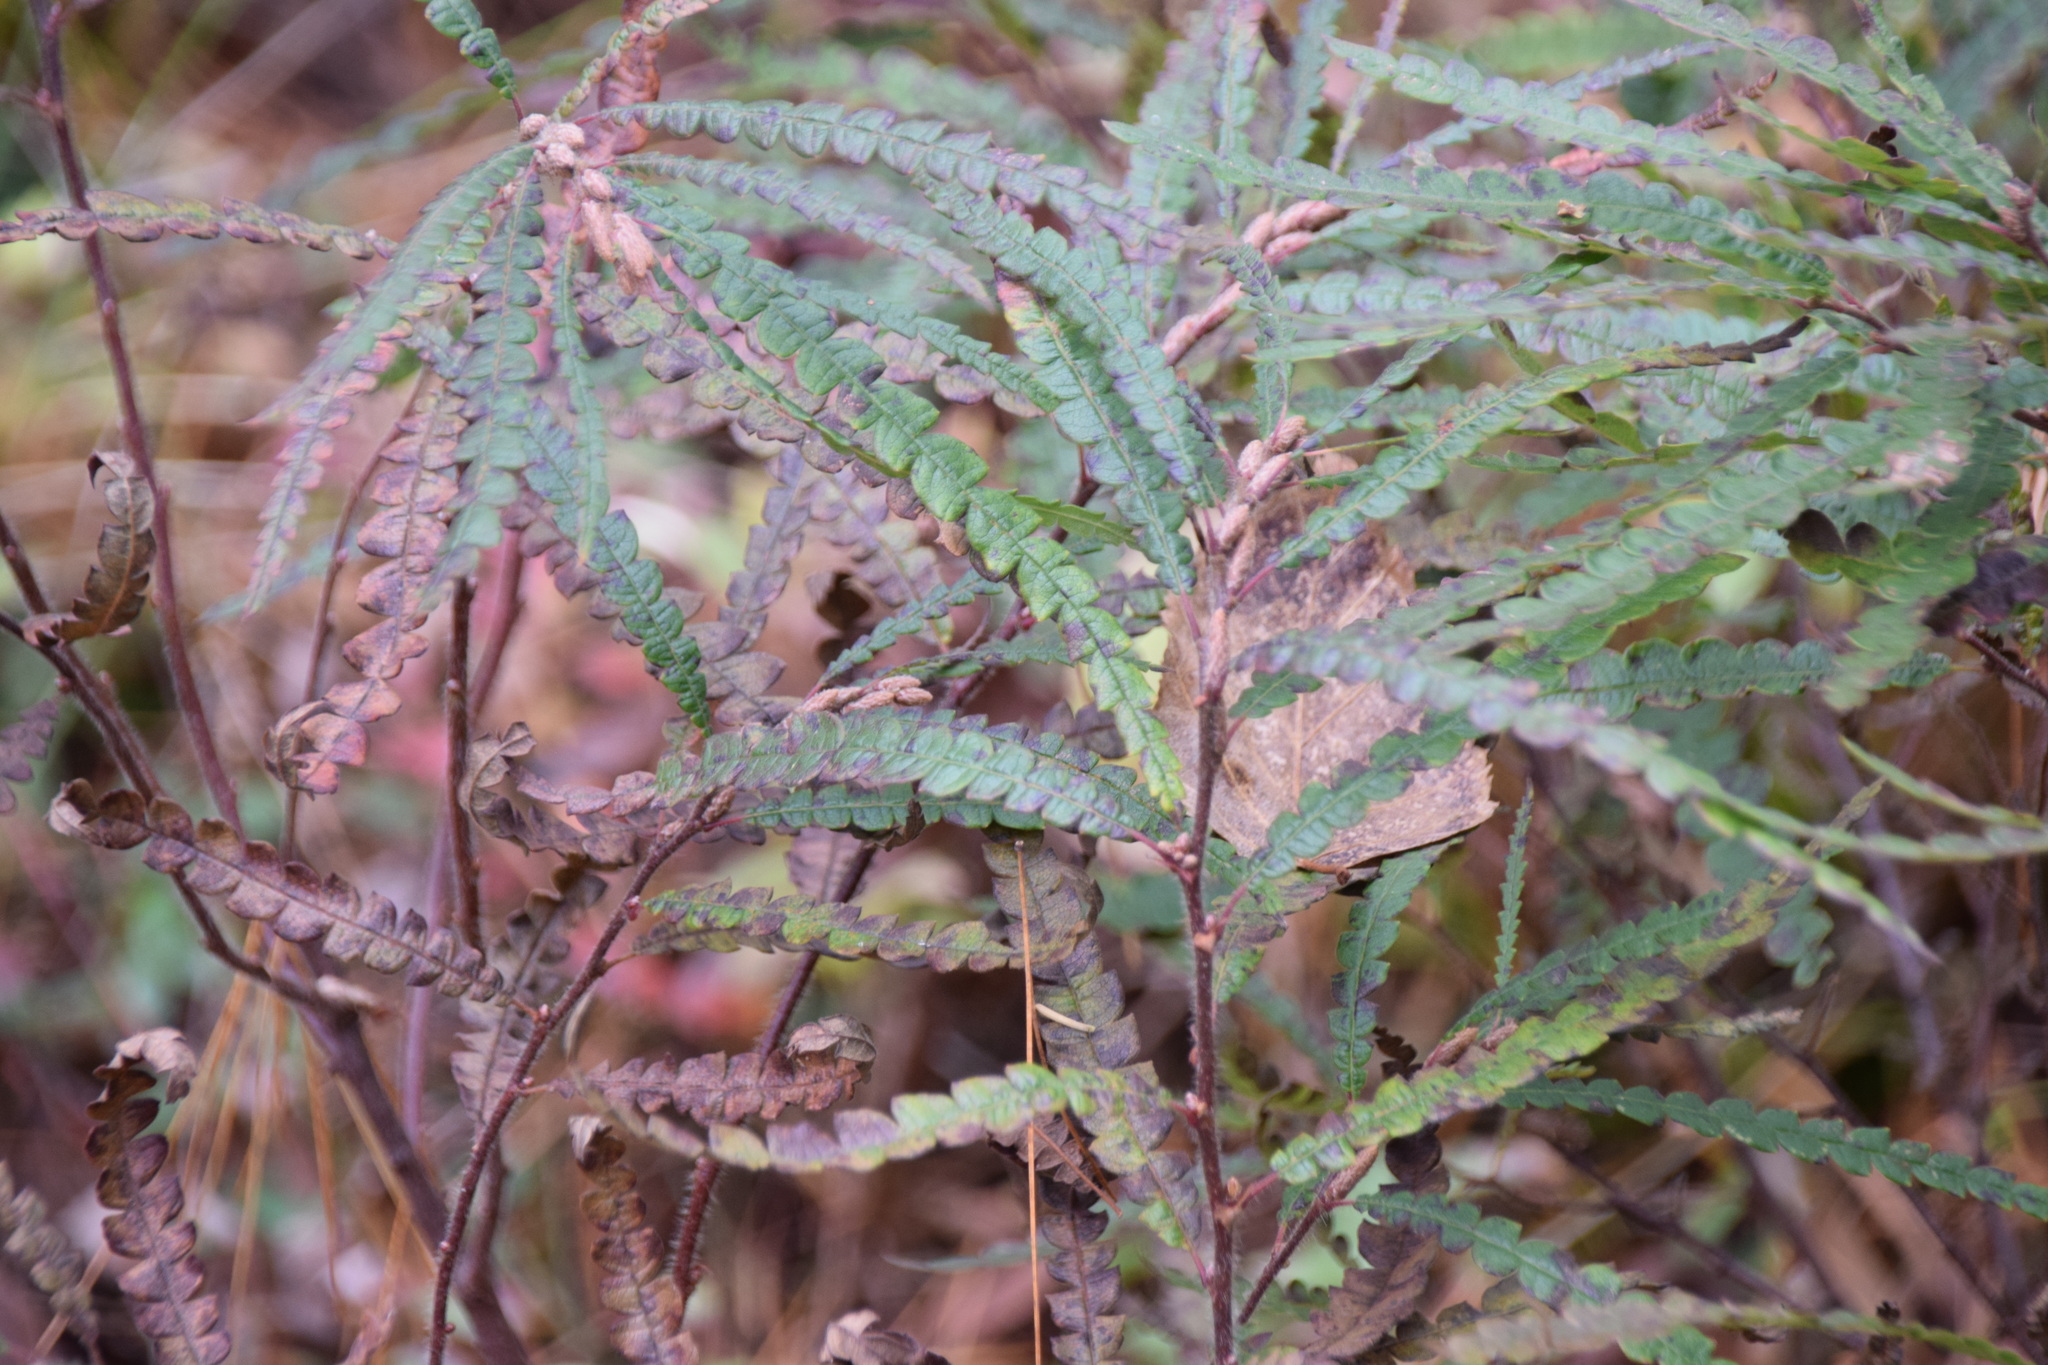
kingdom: Plantae
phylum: Tracheophyta
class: Magnoliopsida
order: Fagales
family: Myricaceae
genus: Comptonia
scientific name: Comptonia peregrina
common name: Sweet-fern
